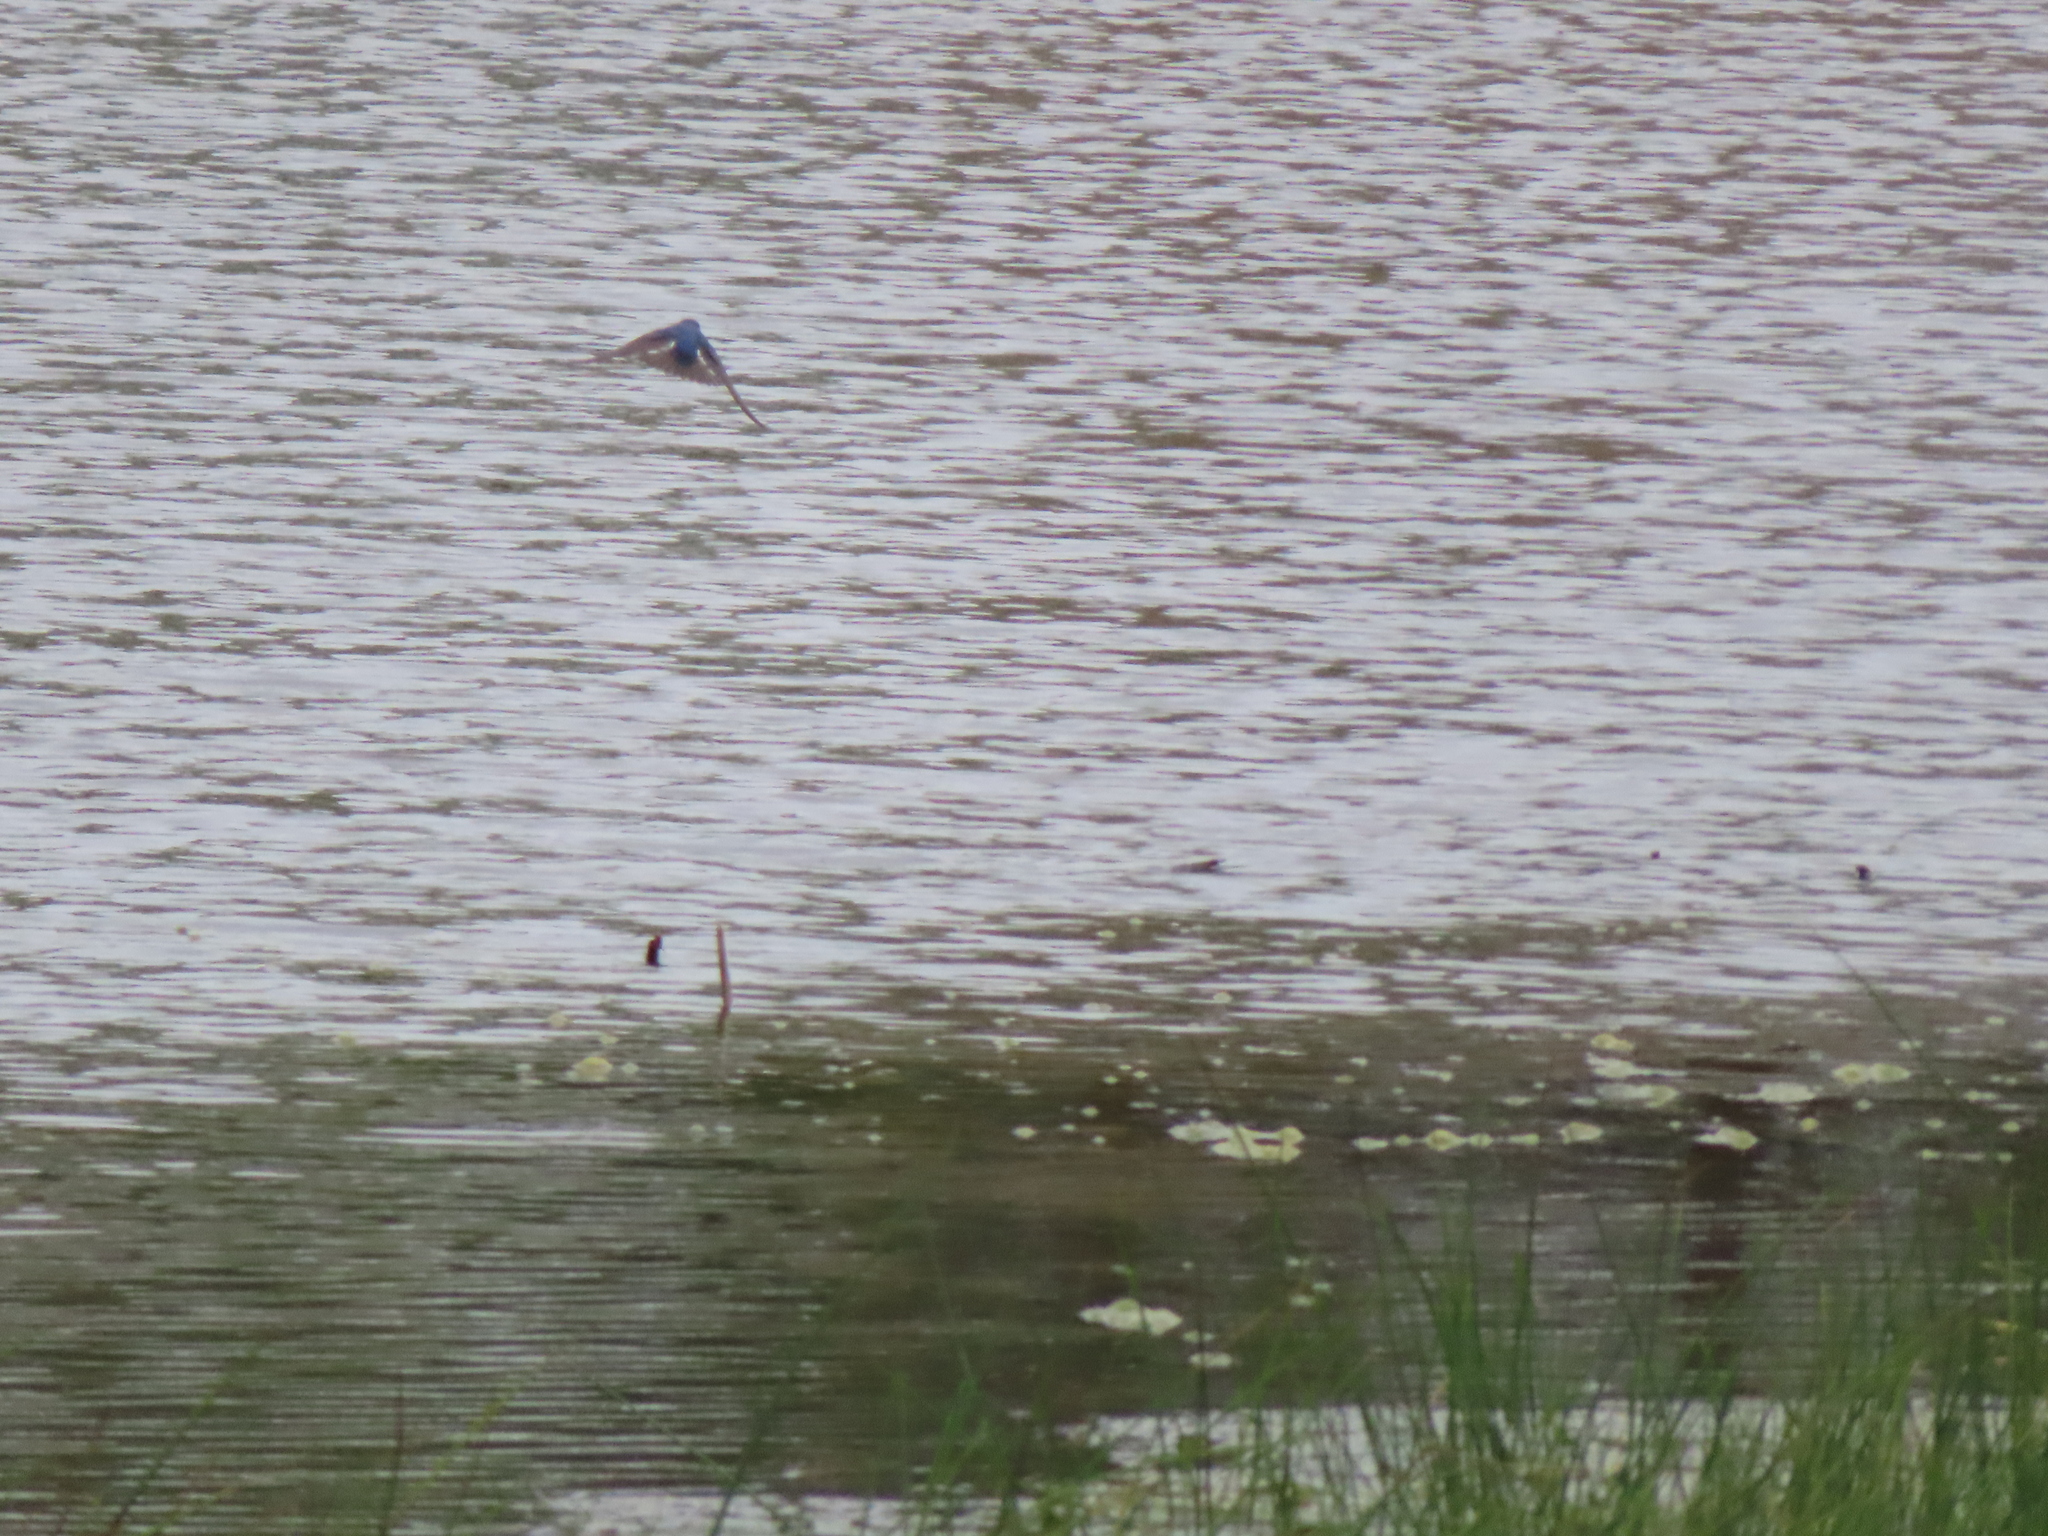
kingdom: Animalia
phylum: Chordata
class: Aves
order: Passeriformes
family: Hirundinidae
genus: Tachycineta
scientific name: Tachycineta bicolor
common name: Tree swallow
